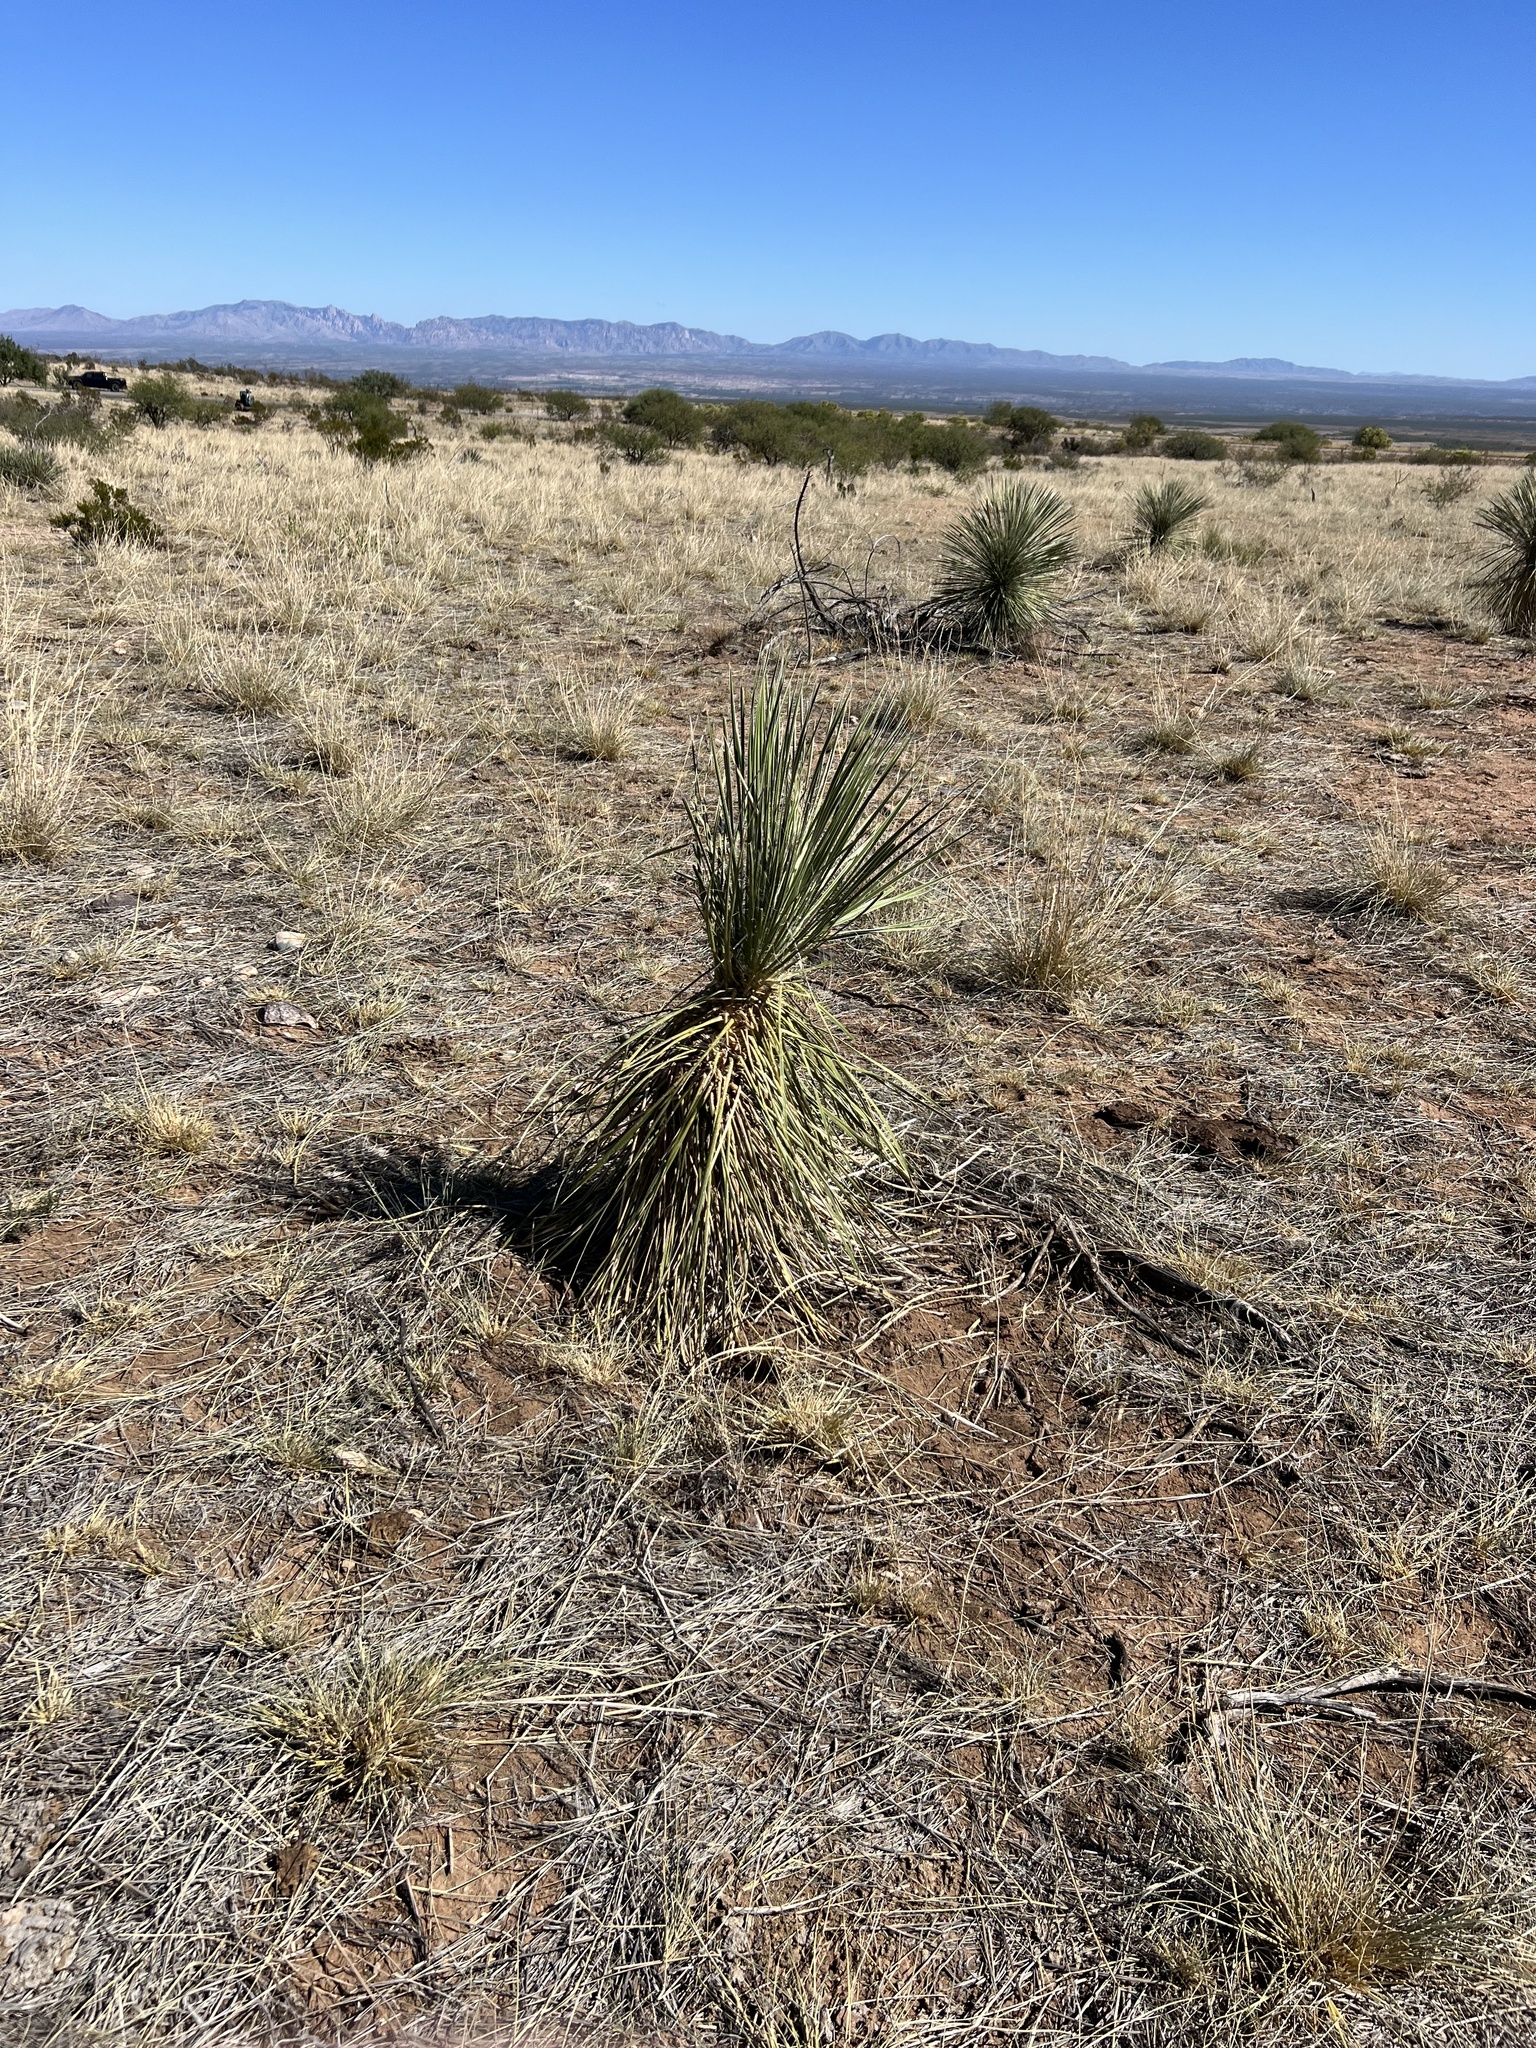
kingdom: Plantae
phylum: Tracheophyta
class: Liliopsida
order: Asparagales
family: Asparagaceae
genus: Yucca
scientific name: Yucca elata
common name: Palmella
